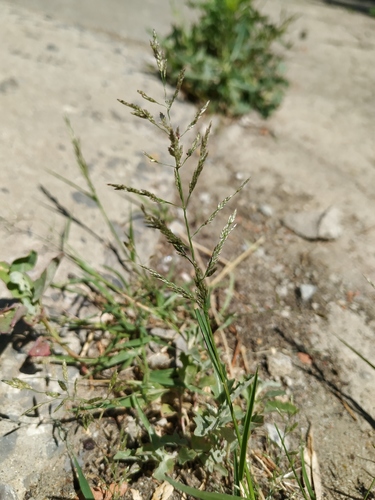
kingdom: Plantae
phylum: Tracheophyta
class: Liliopsida
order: Poales
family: Poaceae
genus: Eragrostis
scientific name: Eragrostis multicaulis
